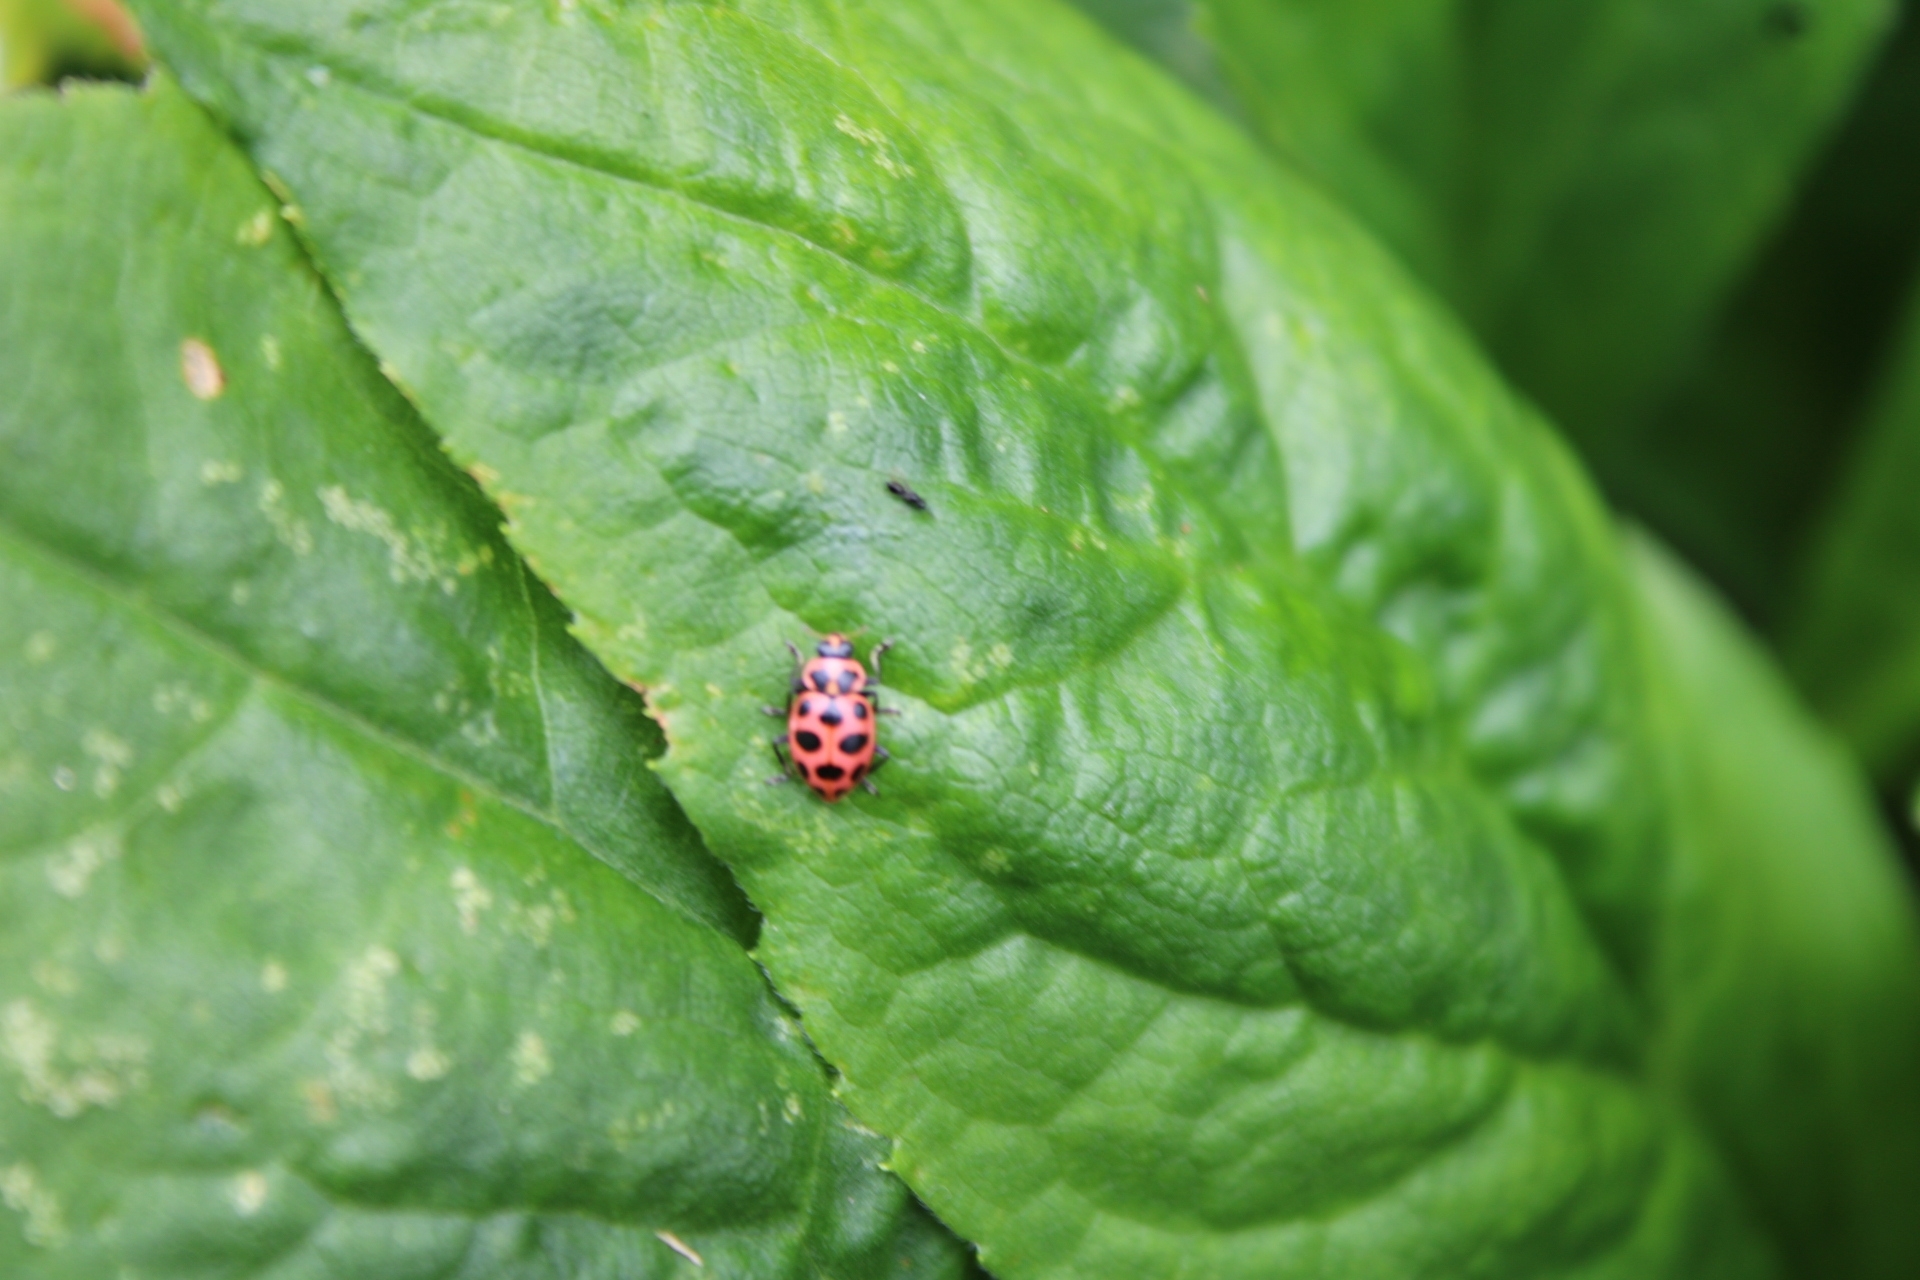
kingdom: Animalia
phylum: Arthropoda
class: Insecta
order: Coleoptera
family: Coccinellidae
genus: Coleomegilla
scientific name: Coleomegilla maculata
